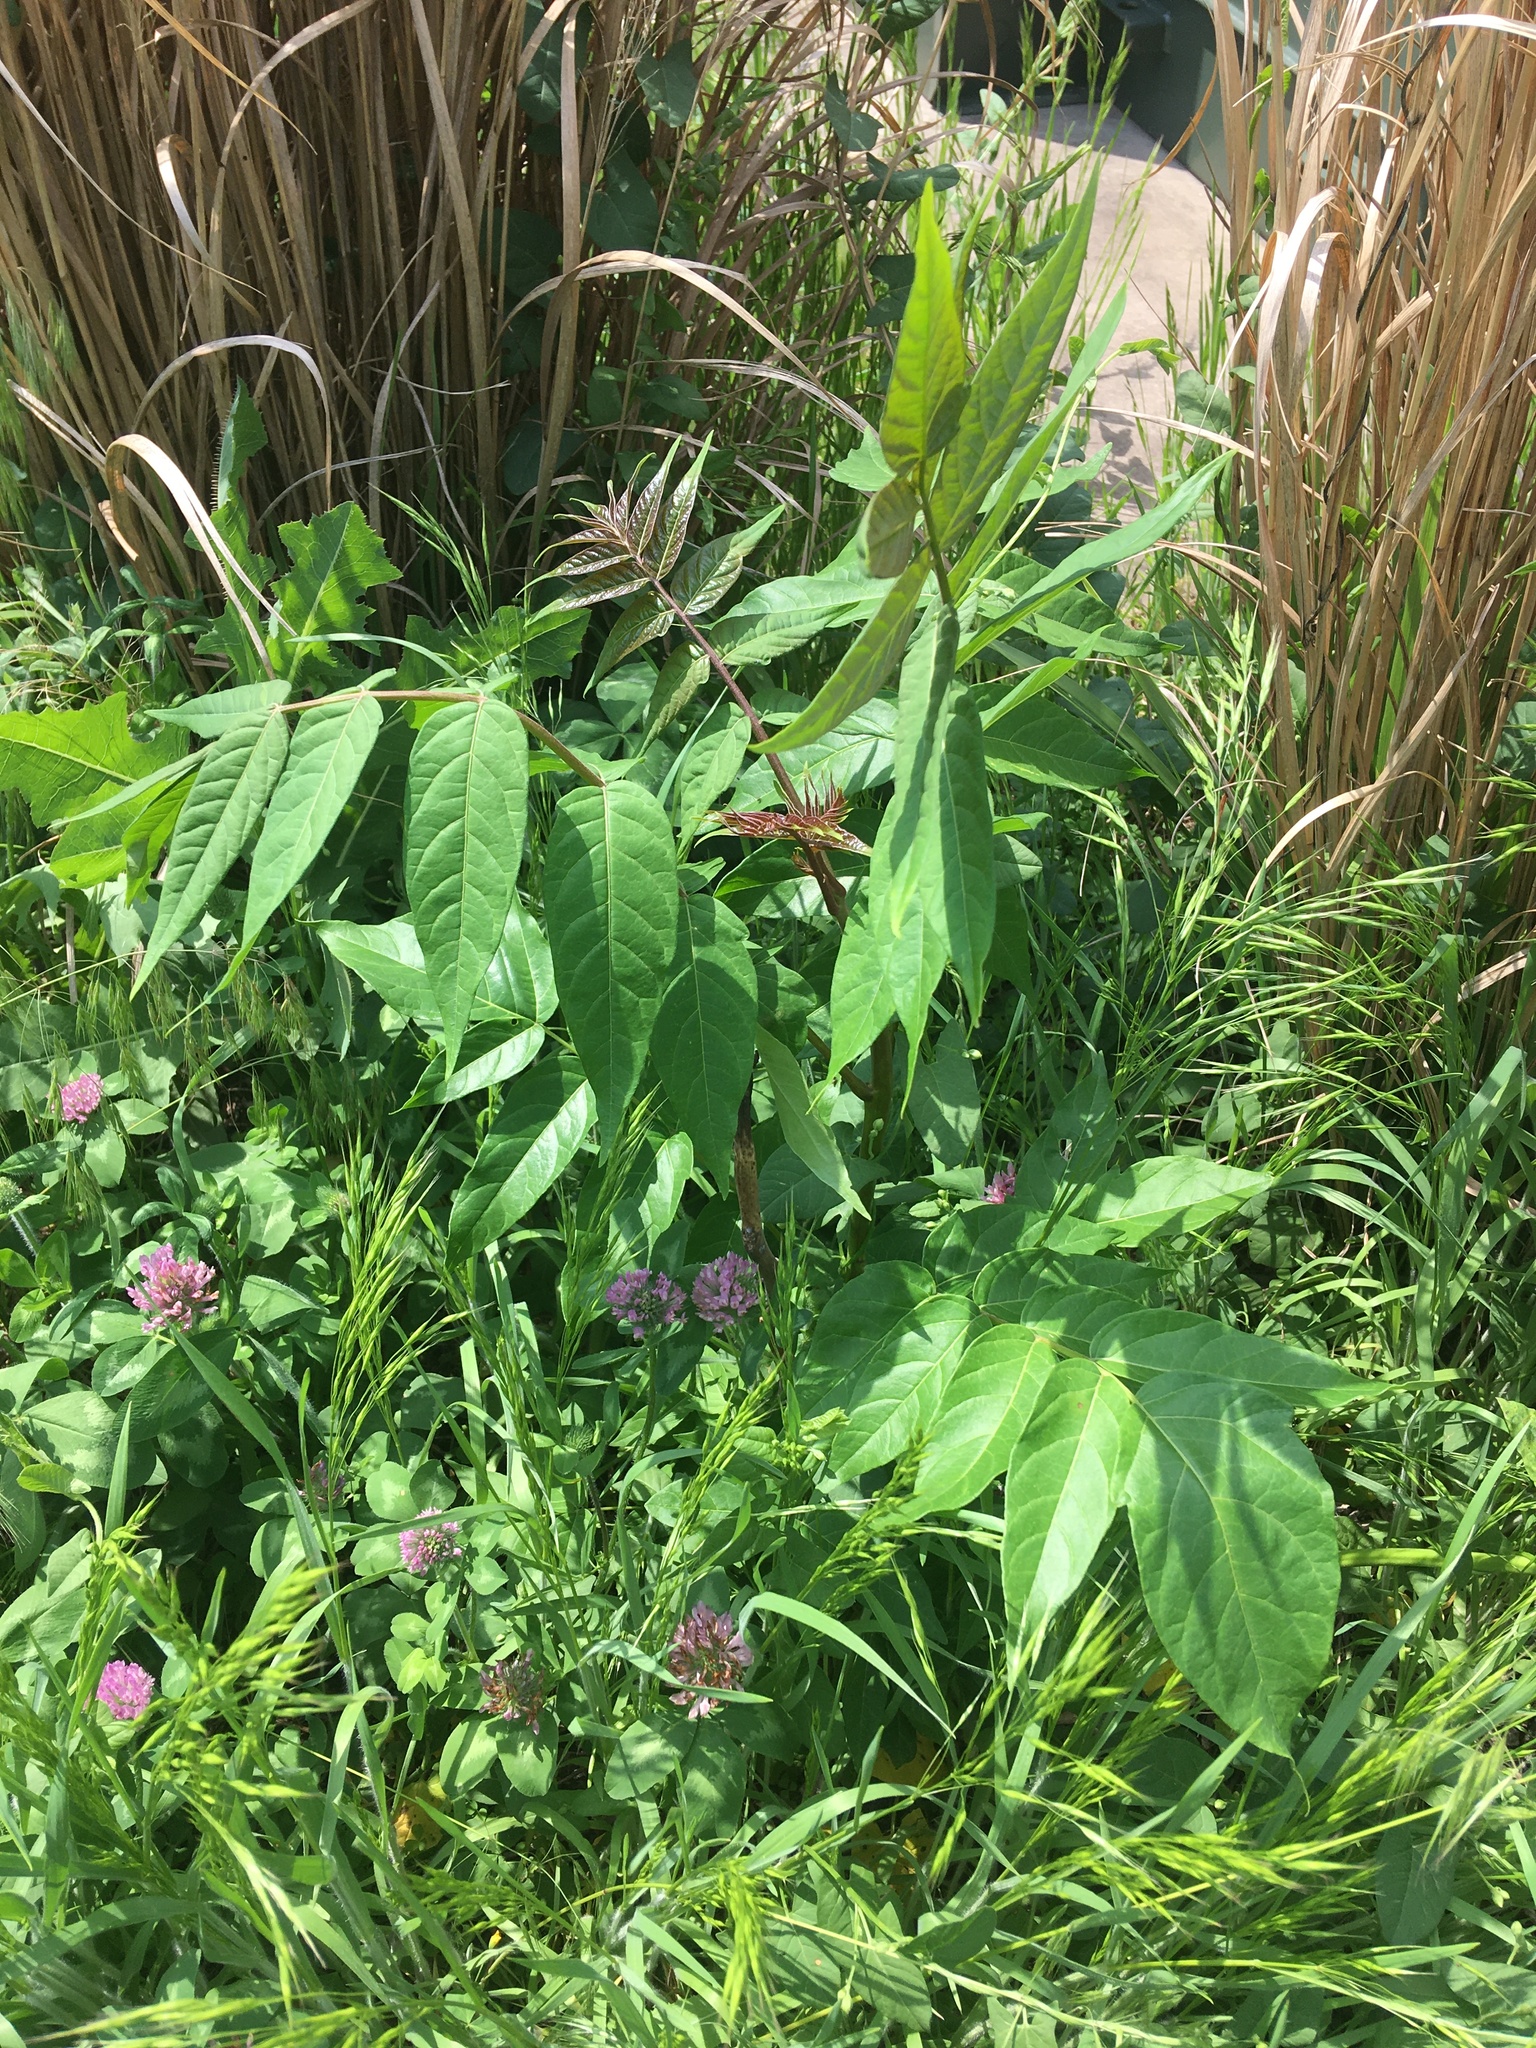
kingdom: Plantae
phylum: Tracheophyta
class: Magnoliopsida
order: Sapindales
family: Simaroubaceae
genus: Ailanthus
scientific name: Ailanthus altissima
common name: Tree-of-heaven
